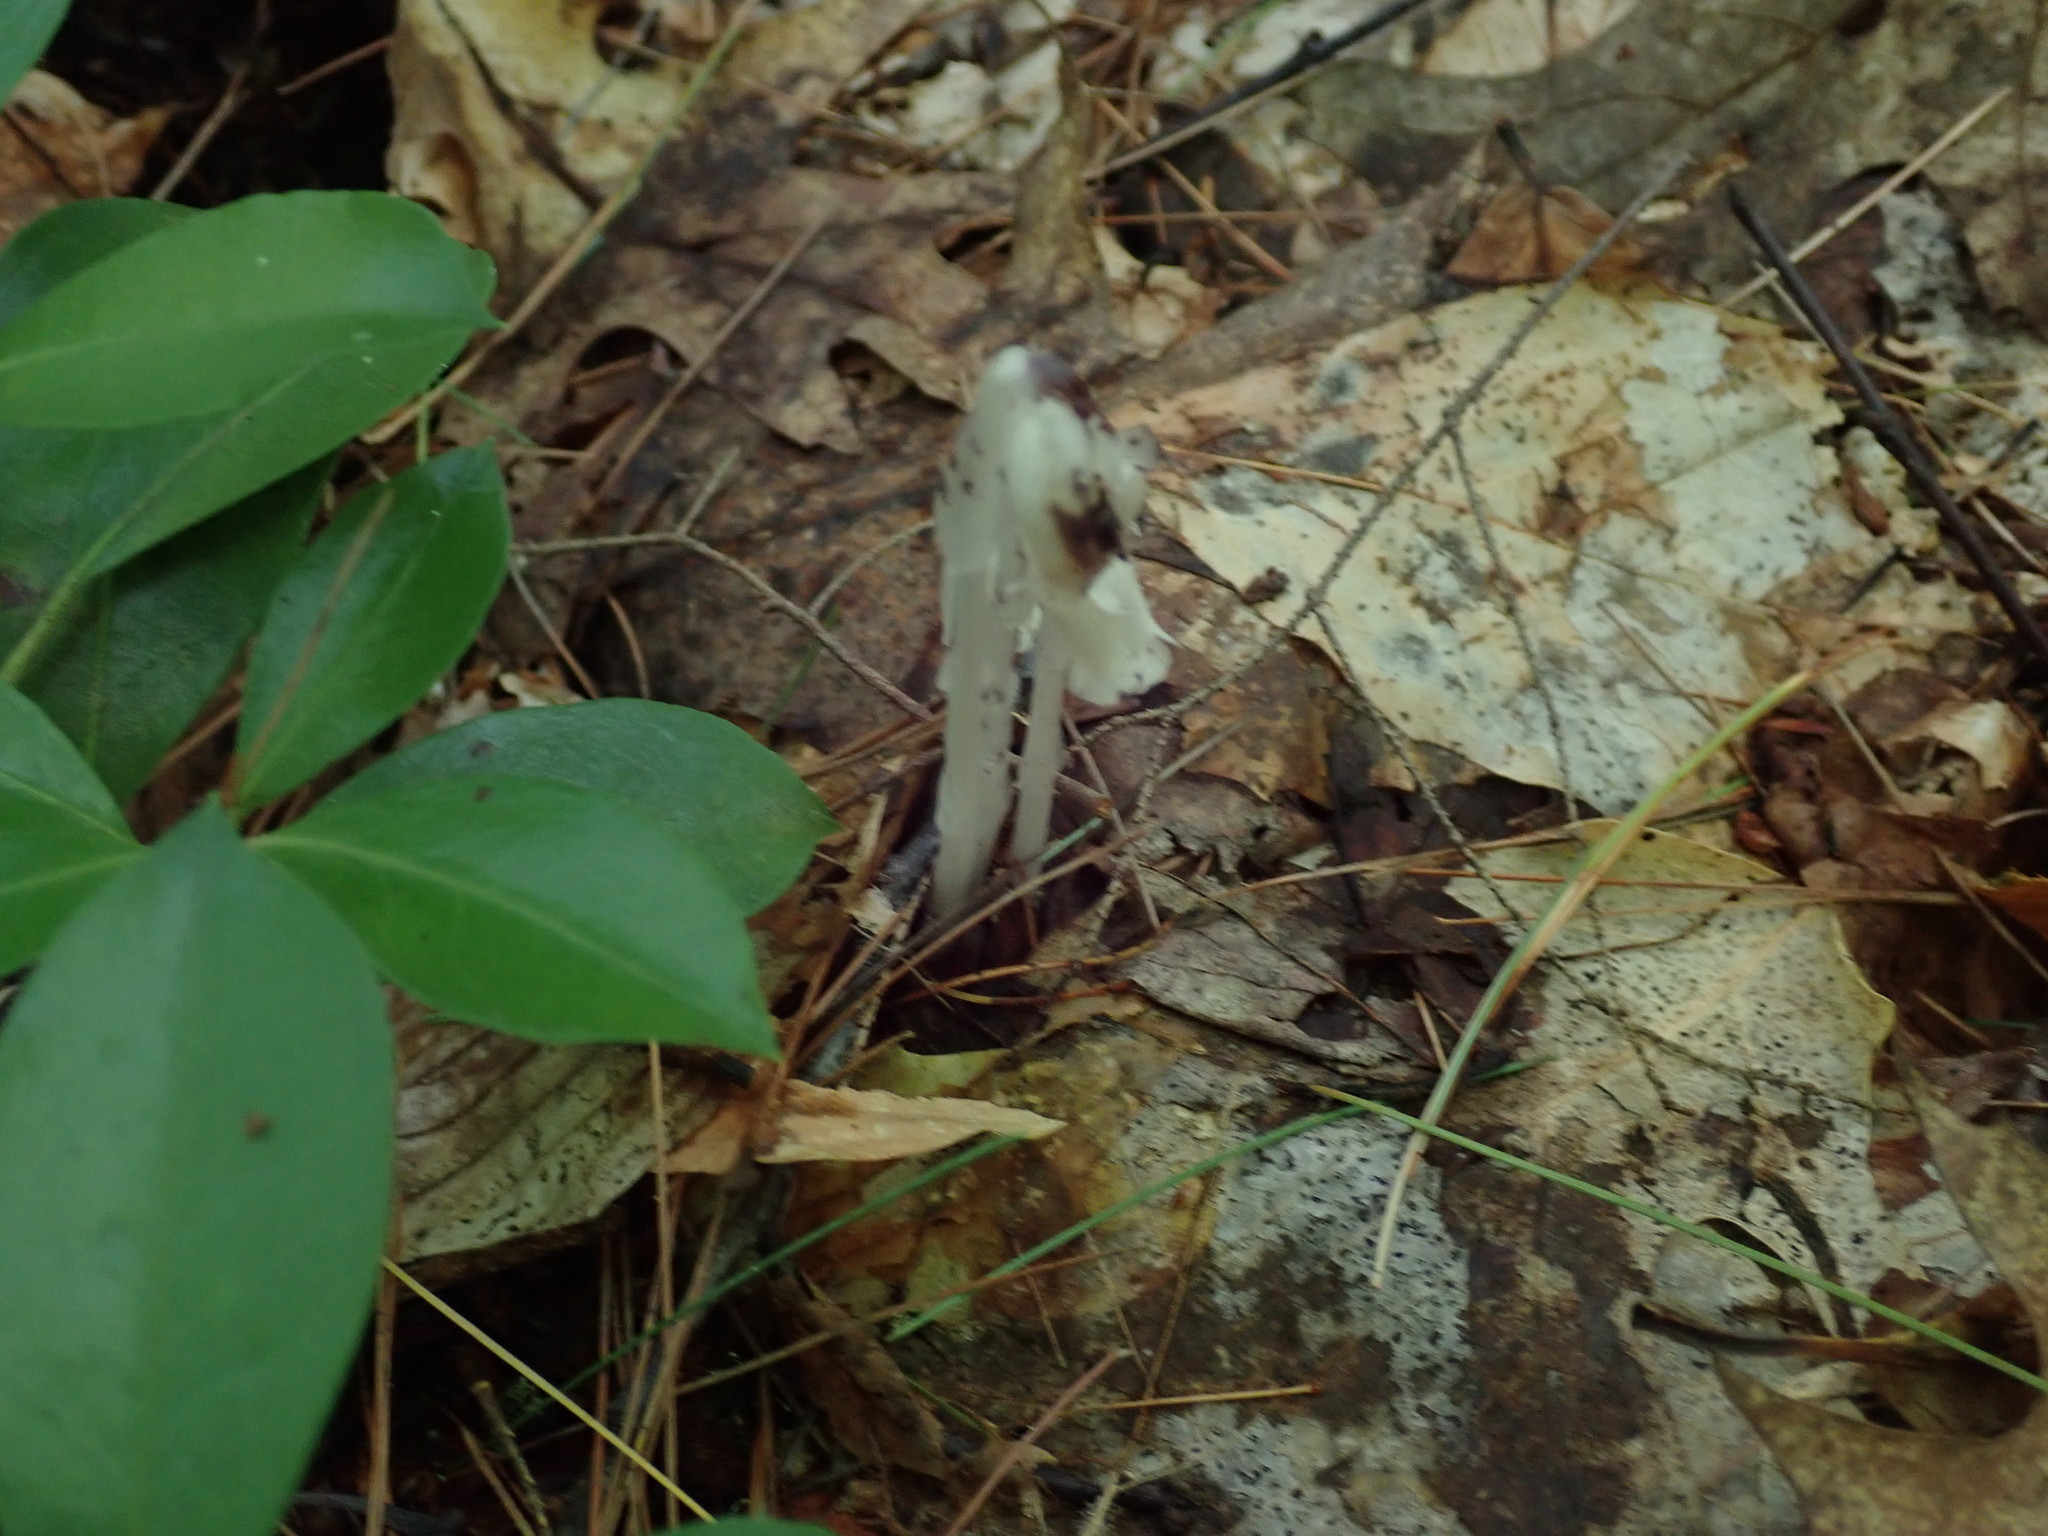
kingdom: Plantae
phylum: Tracheophyta
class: Magnoliopsida
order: Ericales
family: Ericaceae
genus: Monotropa
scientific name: Monotropa uniflora
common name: Convulsion root
